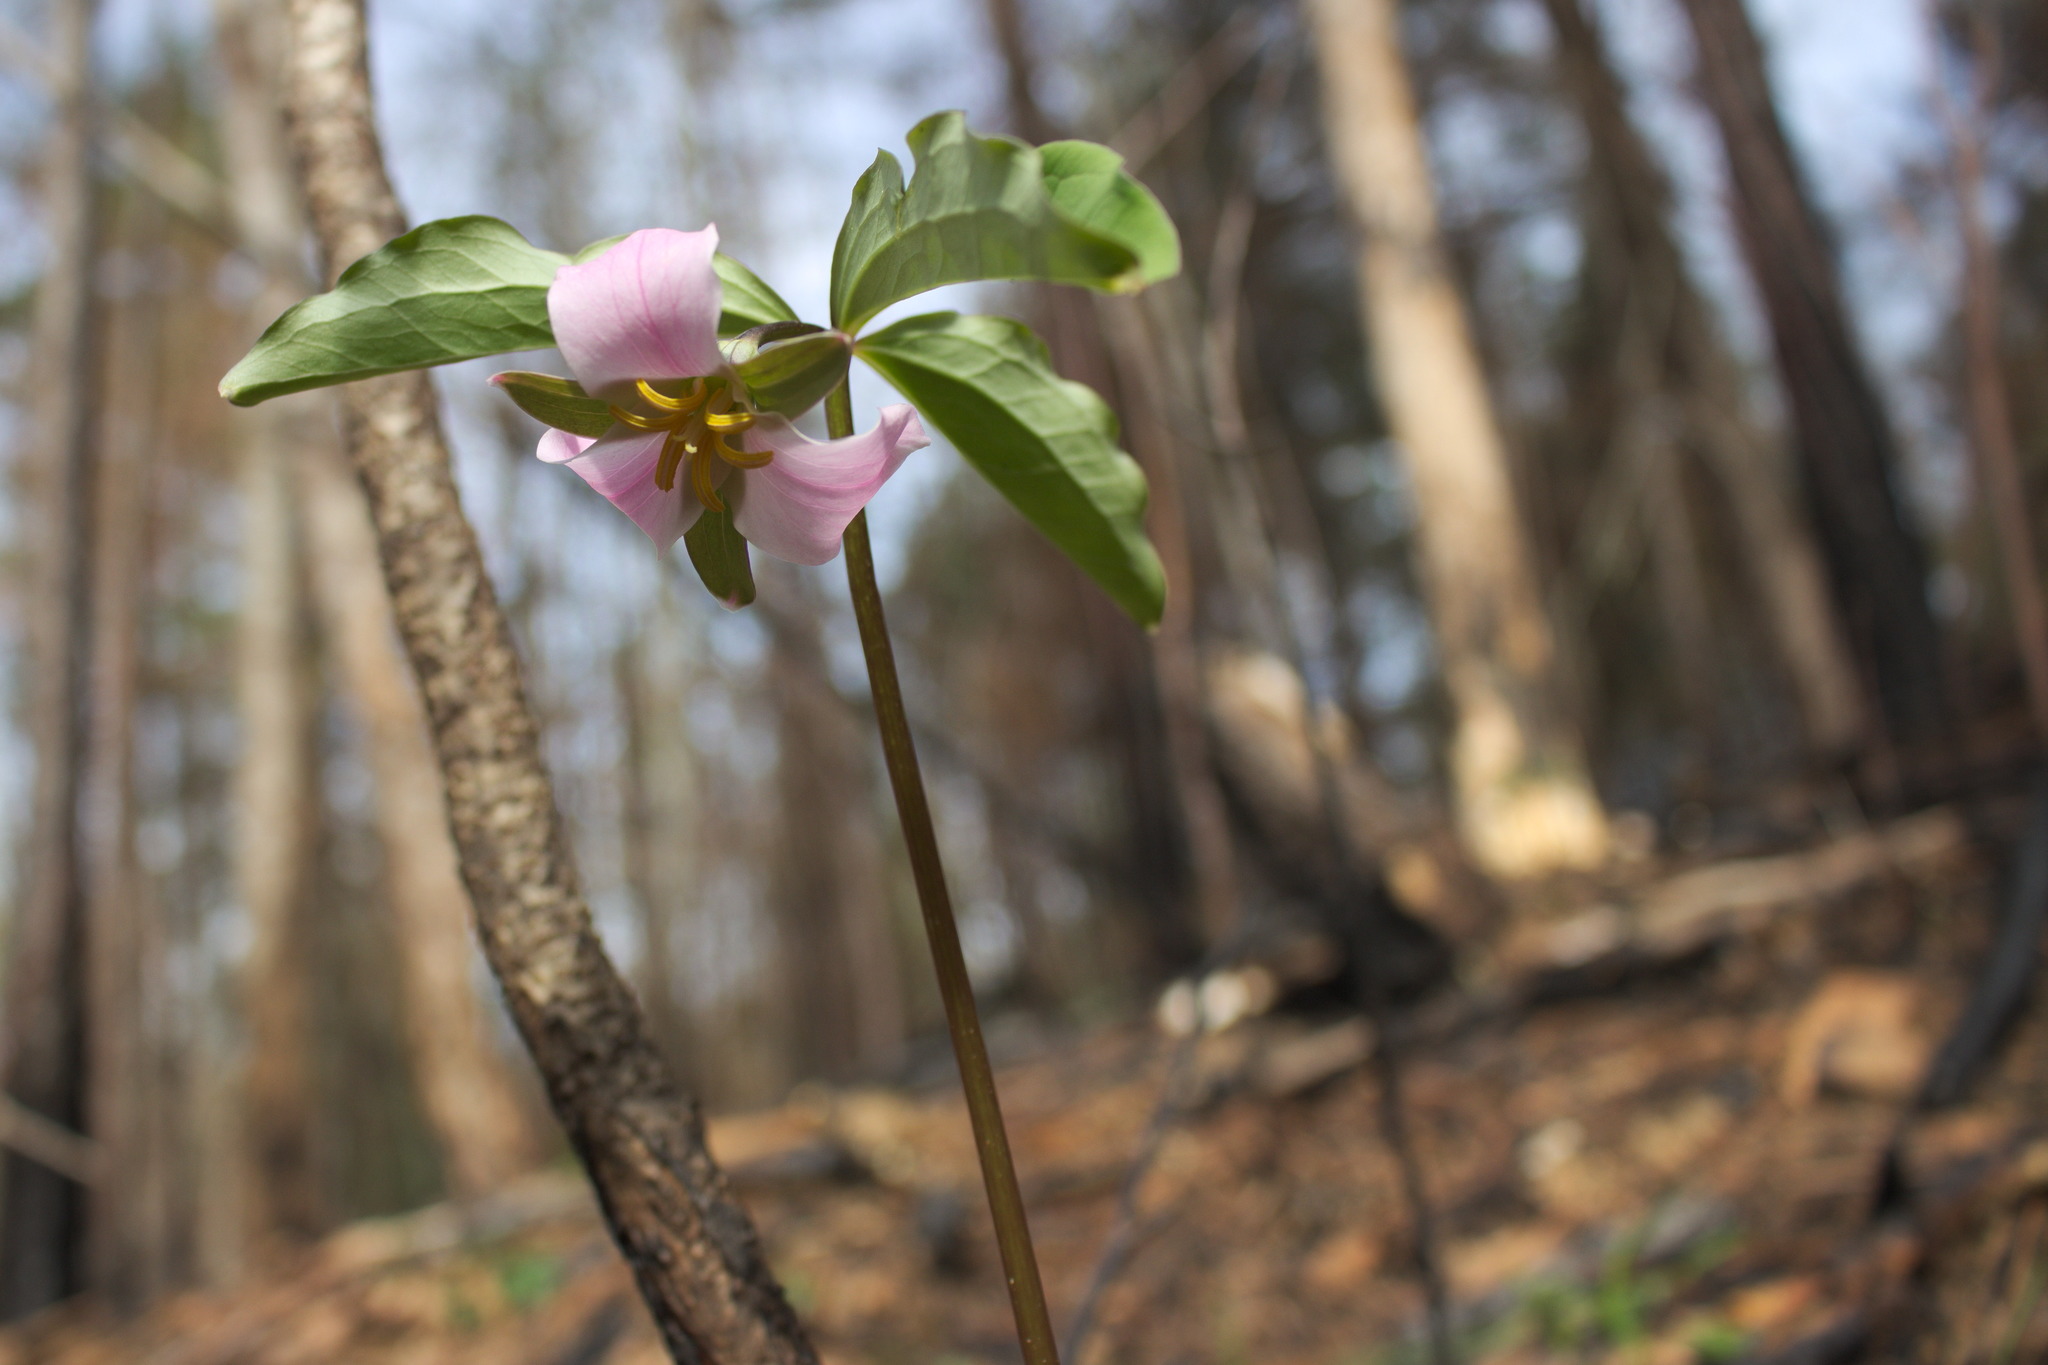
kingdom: Plantae
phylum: Tracheophyta
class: Liliopsida
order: Liliales
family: Melanthiaceae
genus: Trillium
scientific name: Trillium catesbaei
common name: Bashful trillium
